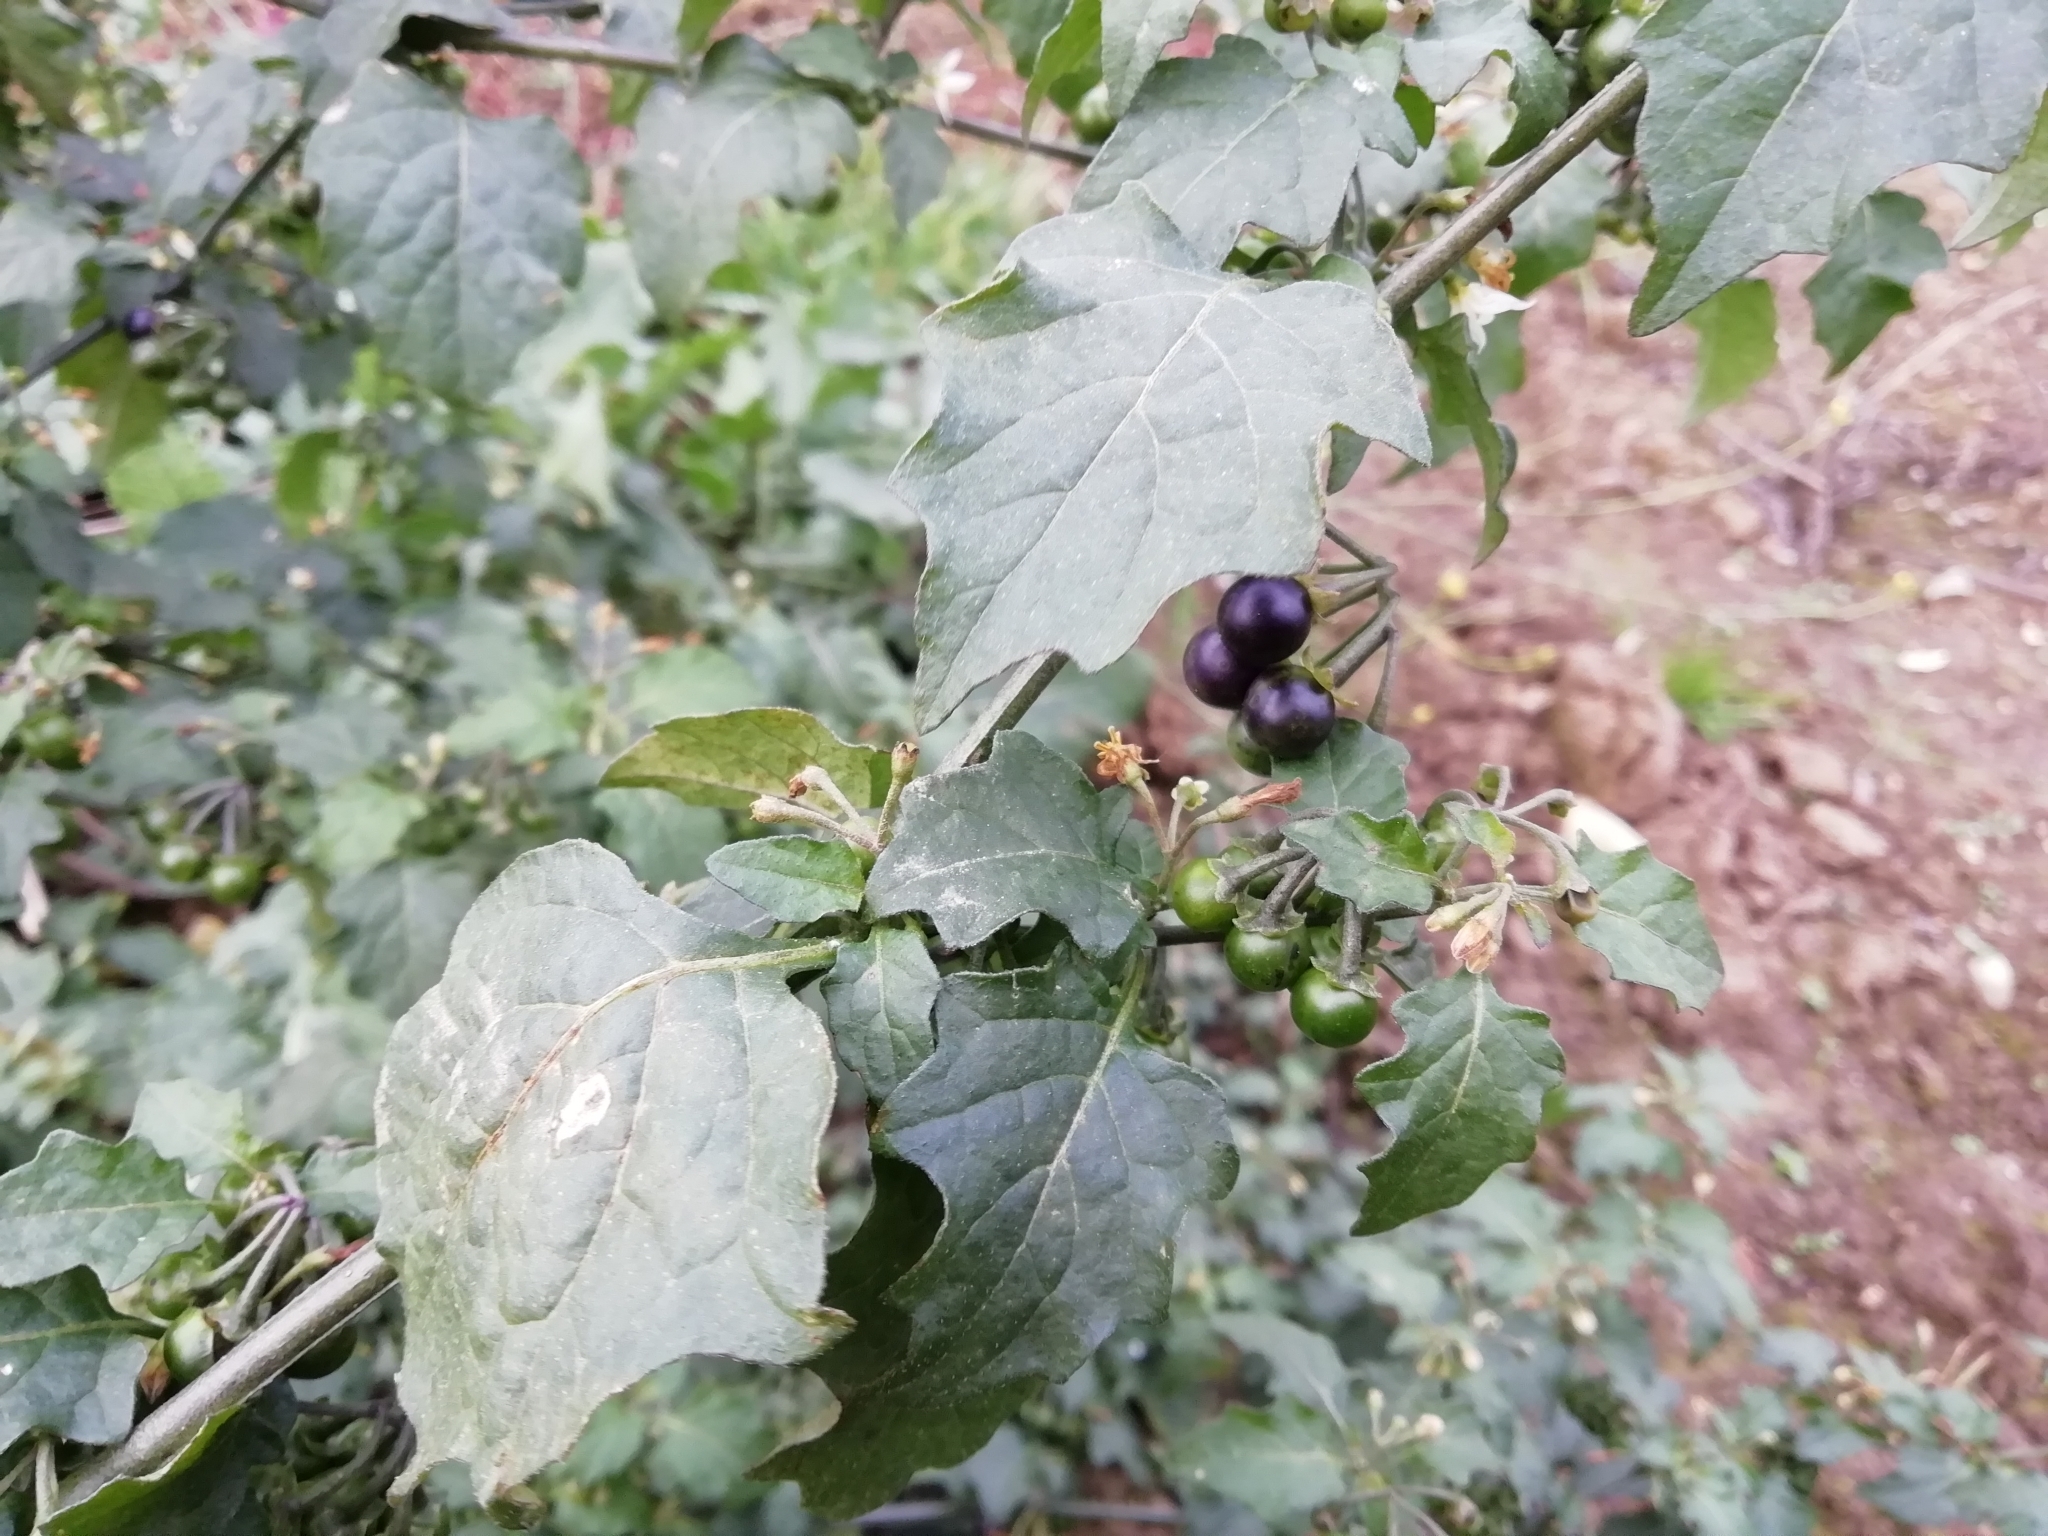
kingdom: Plantae
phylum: Tracheophyta
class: Magnoliopsida
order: Solanales
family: Solanaceae
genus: Solanum
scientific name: Solanum nigrum
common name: Black nightshade
